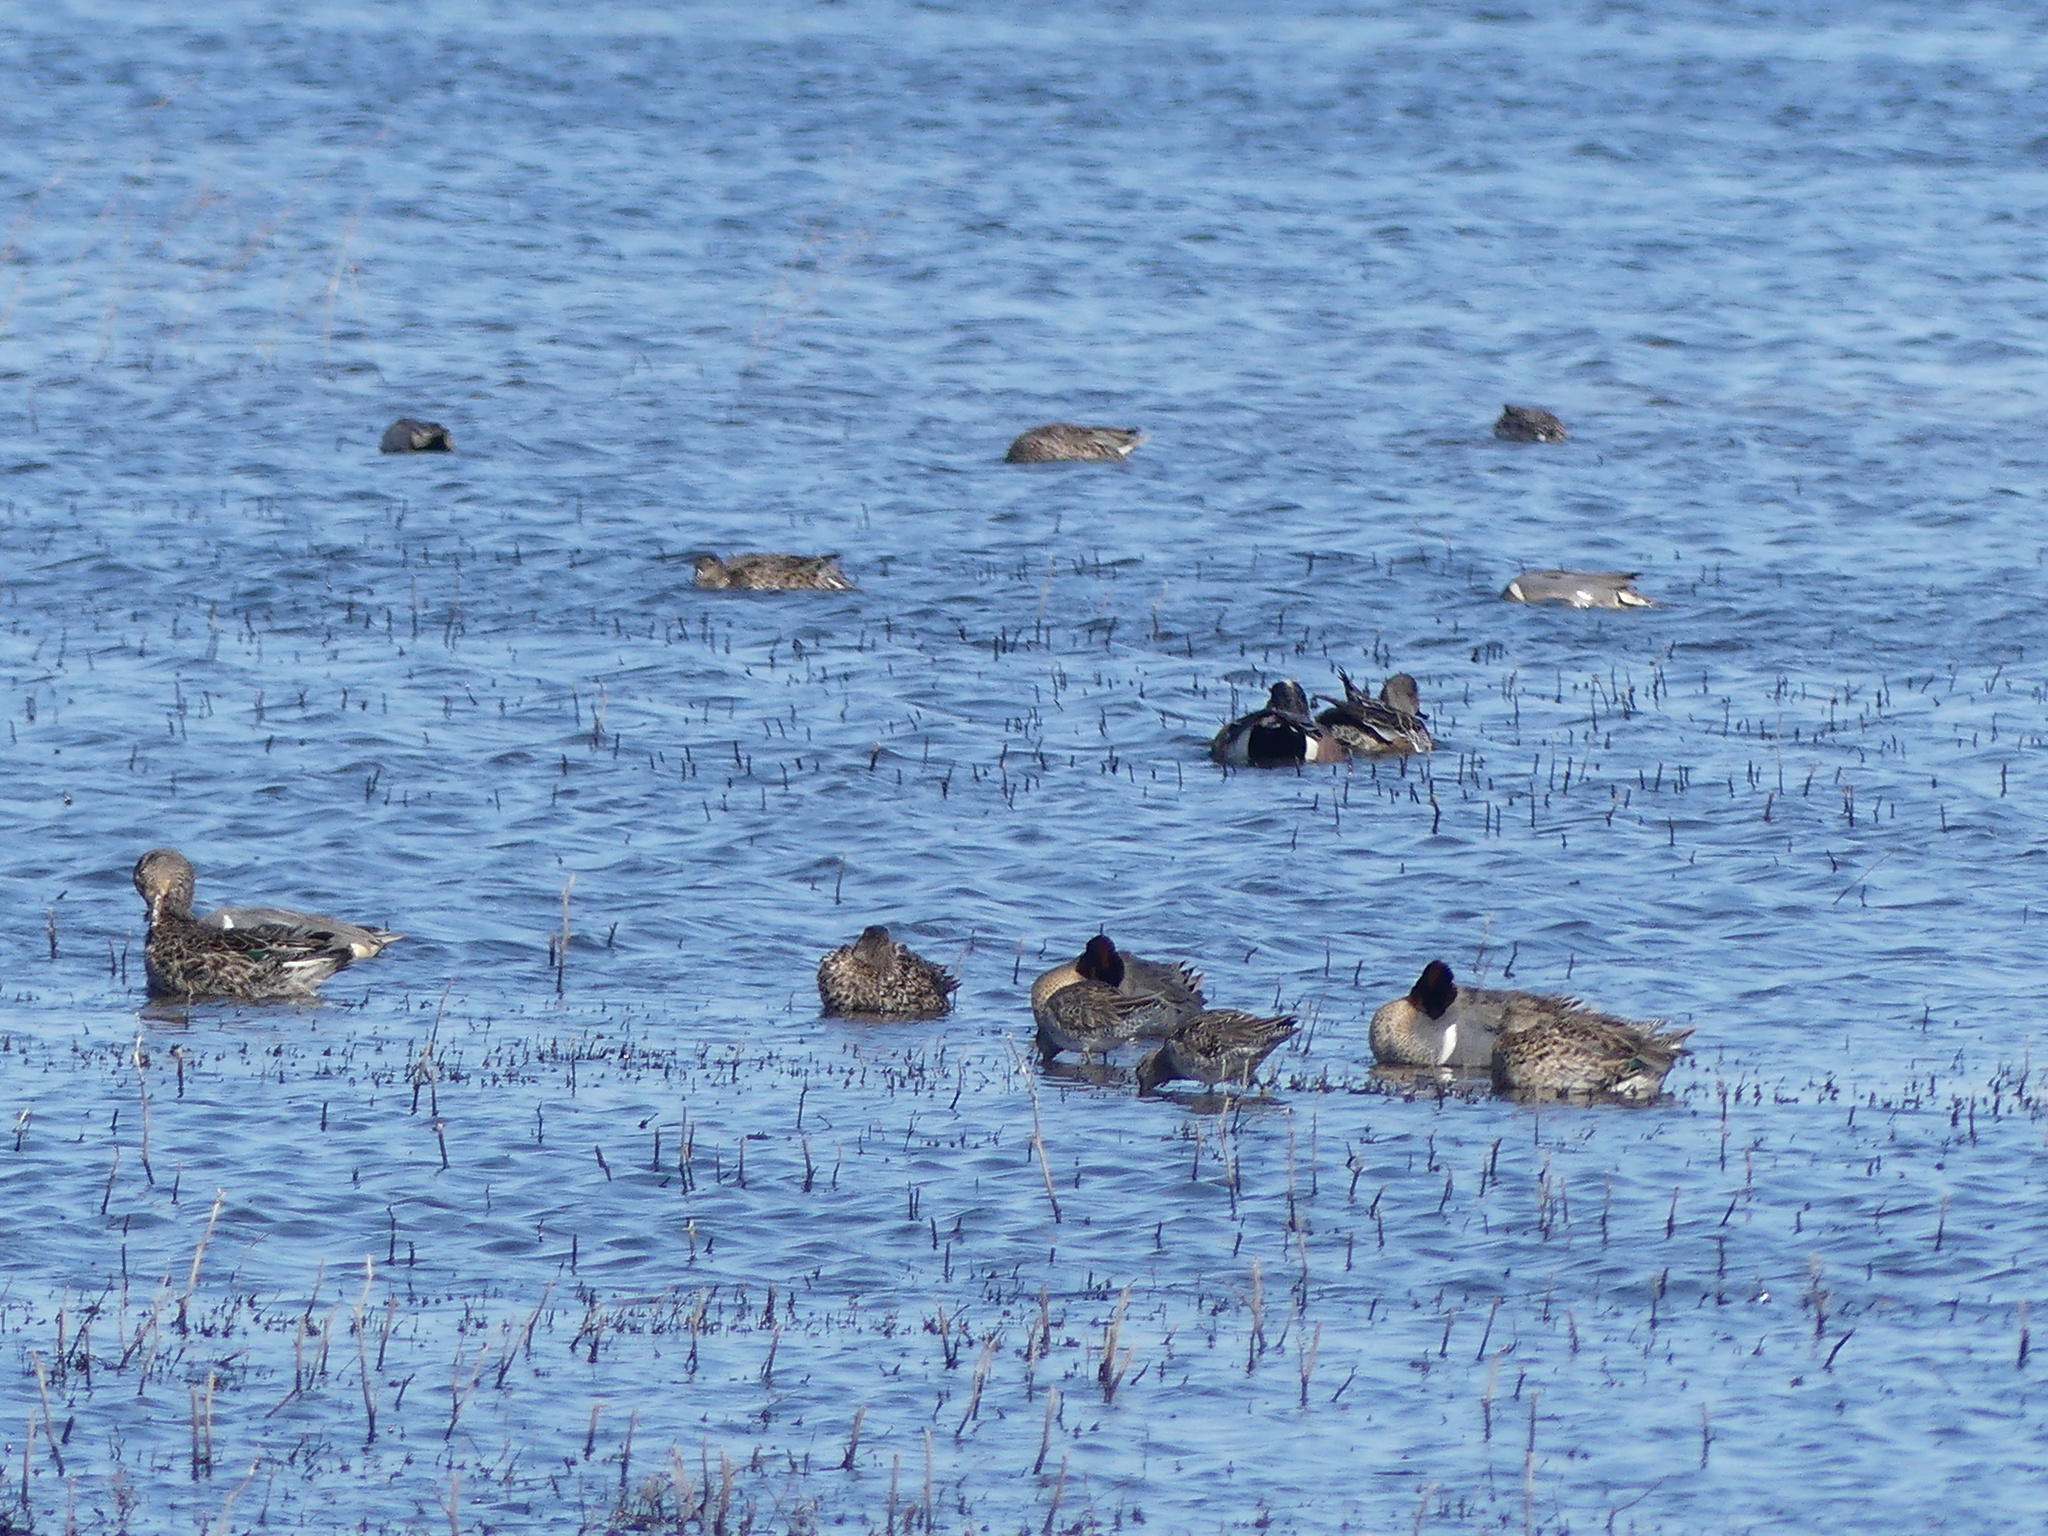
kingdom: Animalia
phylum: Chordata
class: Aves
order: Charadriiformes
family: Scolopacidae
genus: Limnodromus
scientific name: Limnodromus scolopaceus
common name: Long-billed dowitcher
